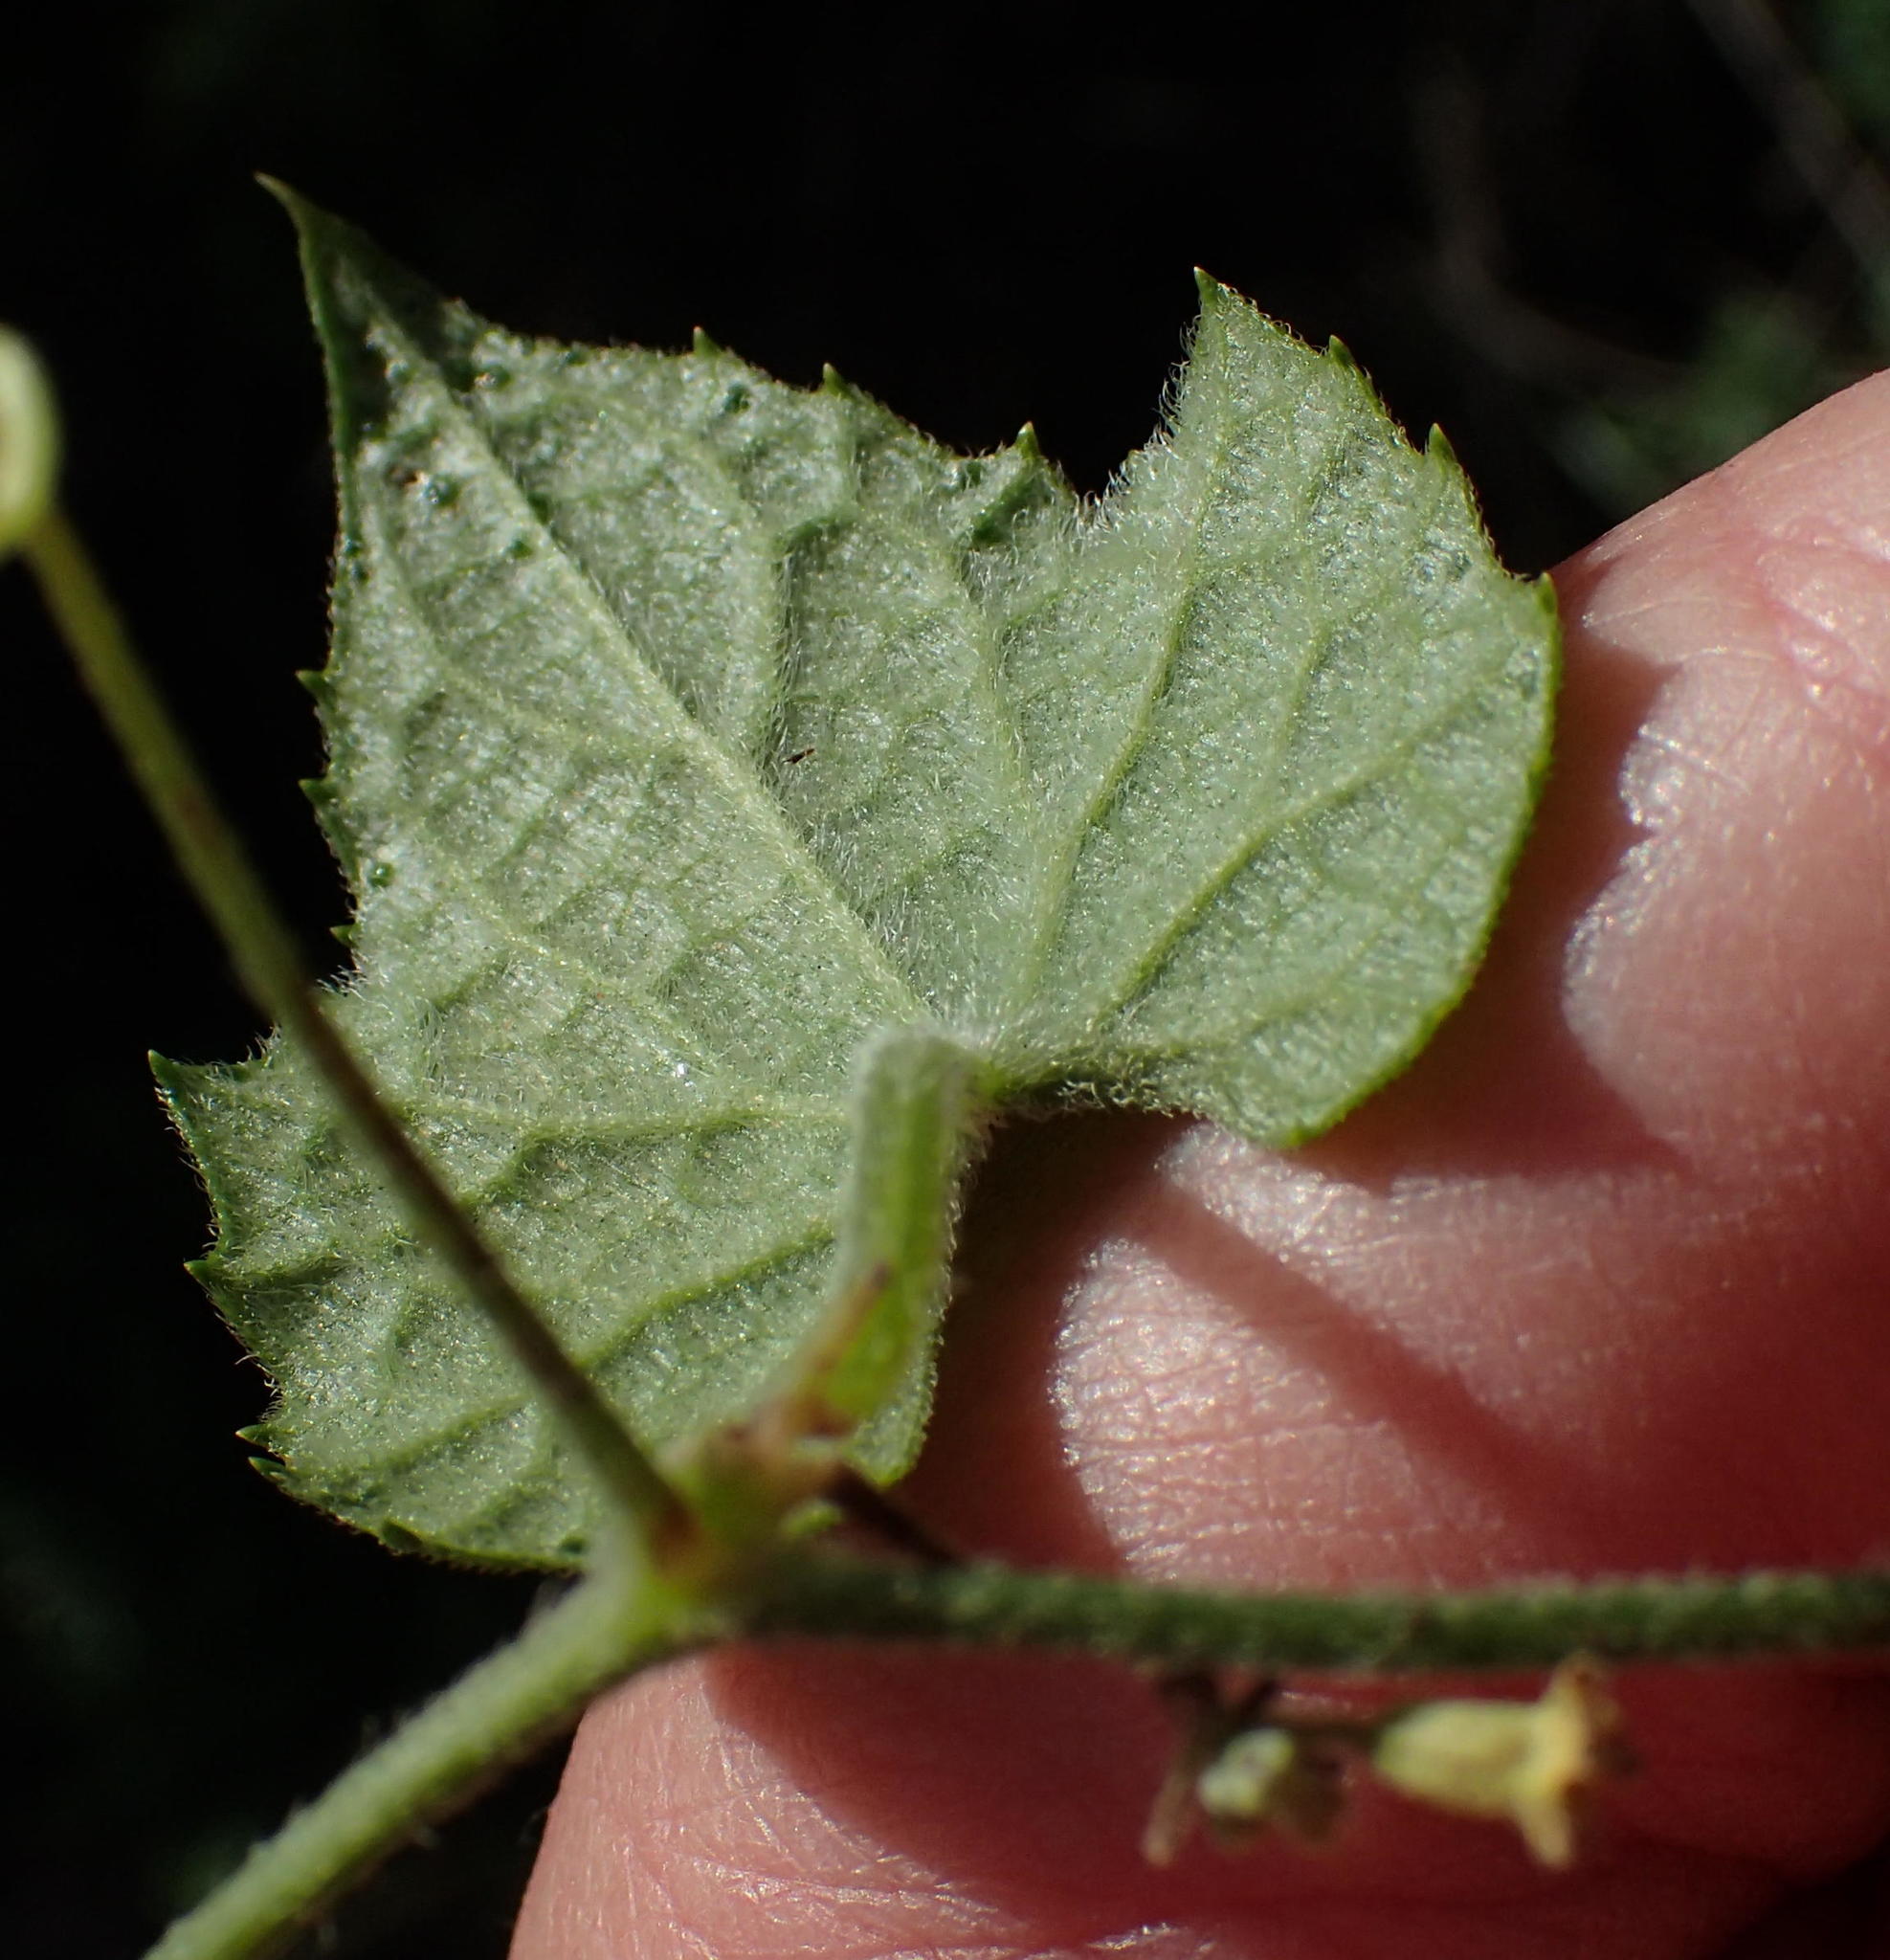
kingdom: Plantae
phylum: Tracheophyta
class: Magnoliopsida
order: Cucurbitales
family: Cucurbitaceae
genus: Zehneria
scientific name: Zehneria scabra
